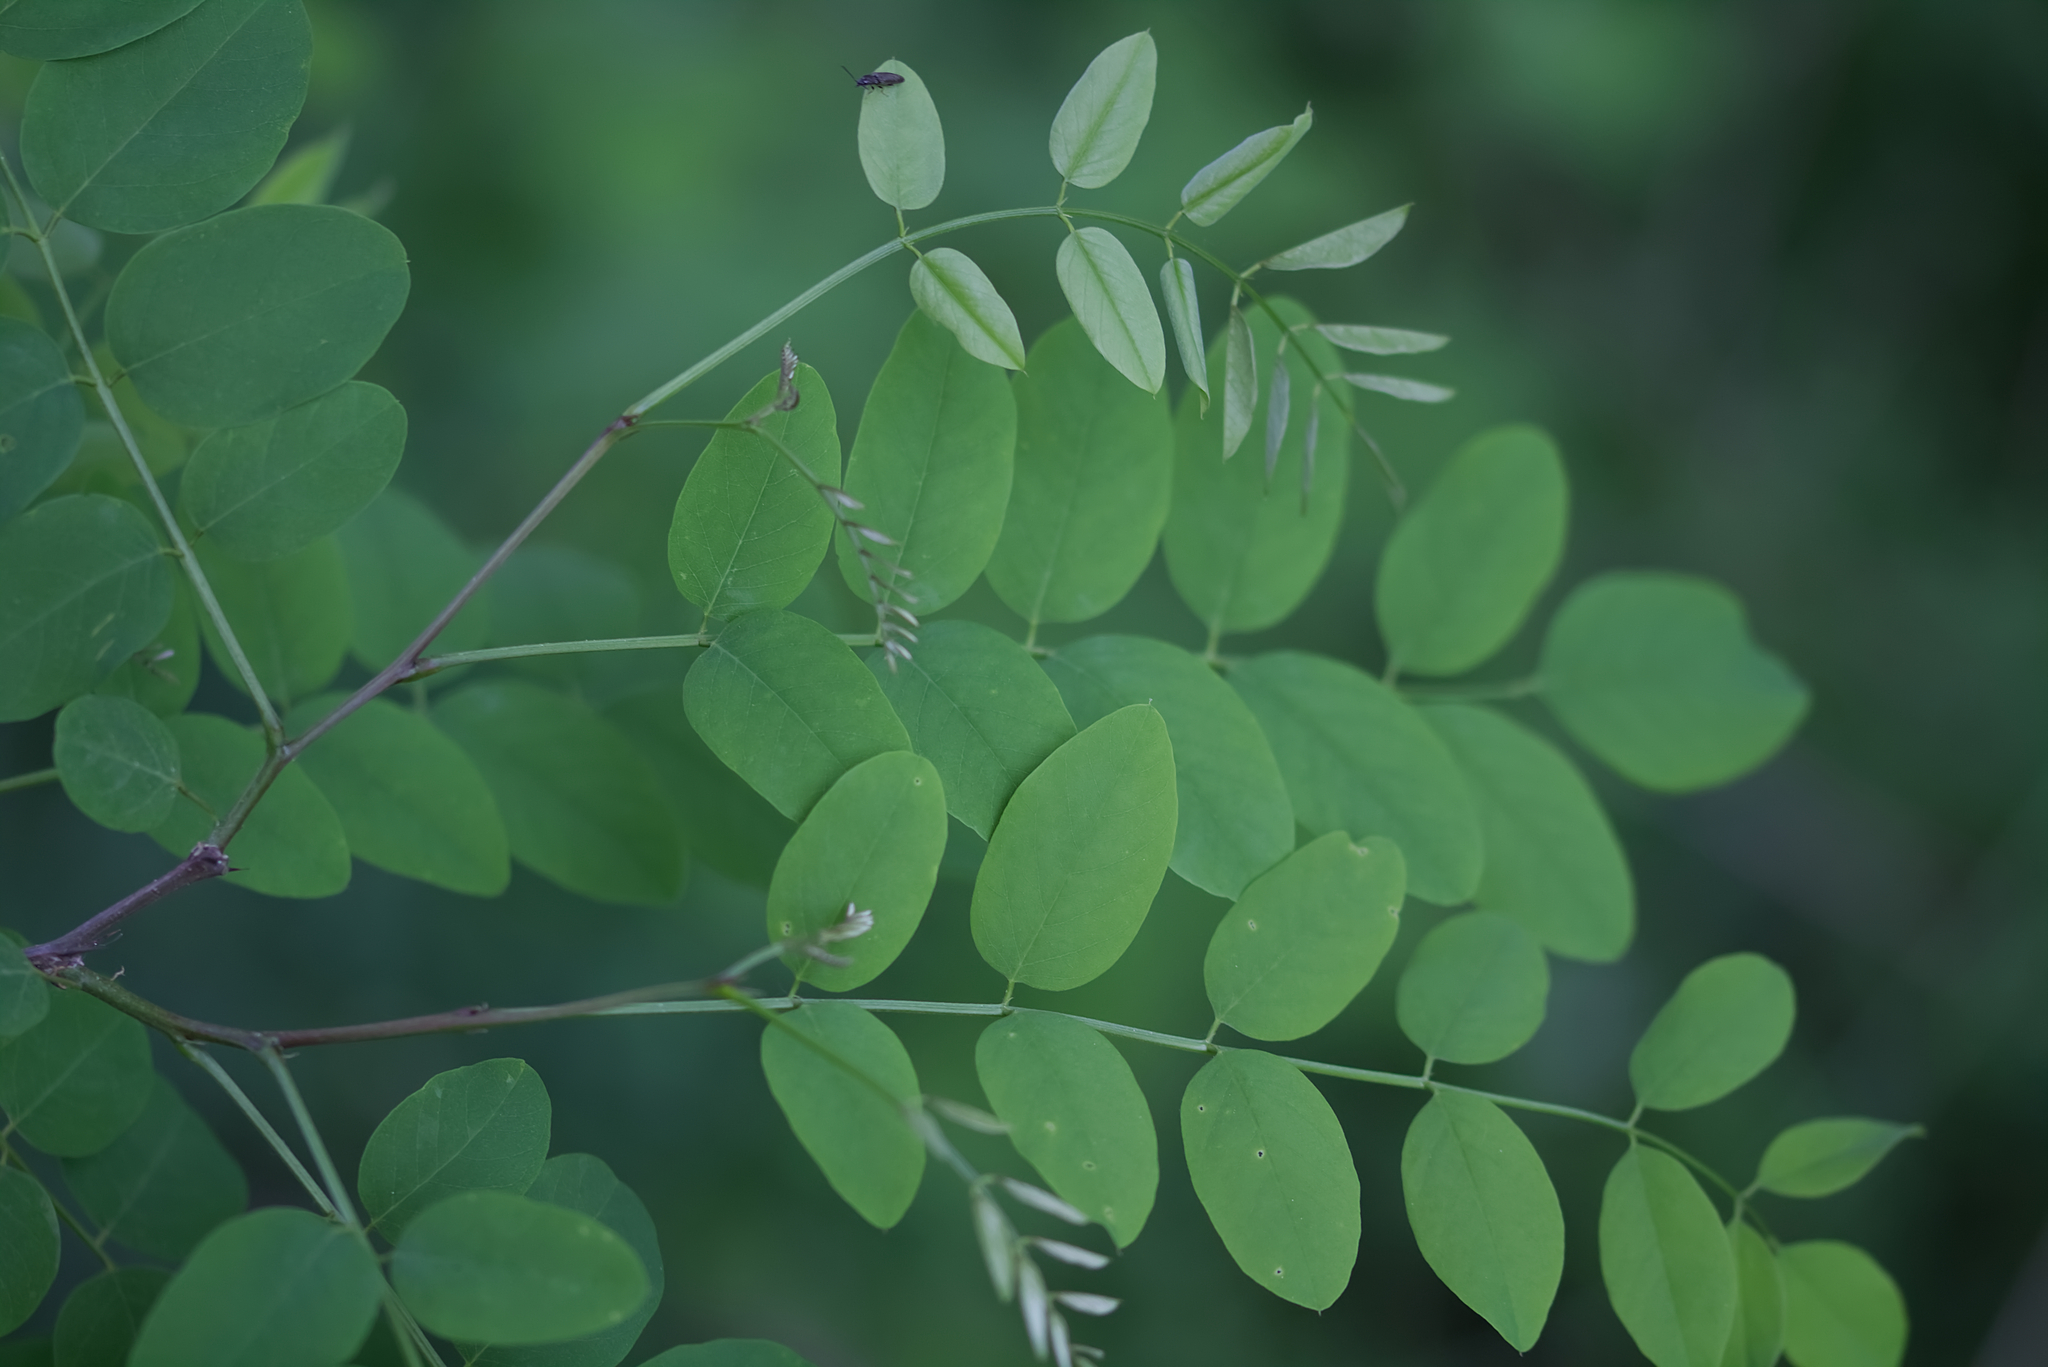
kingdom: Plantae
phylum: Tracheophyta
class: Magnoliopsida
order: Fabales
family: Fabaceae
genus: Robinia
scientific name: Robinia pseudoacacia
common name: Black locust
